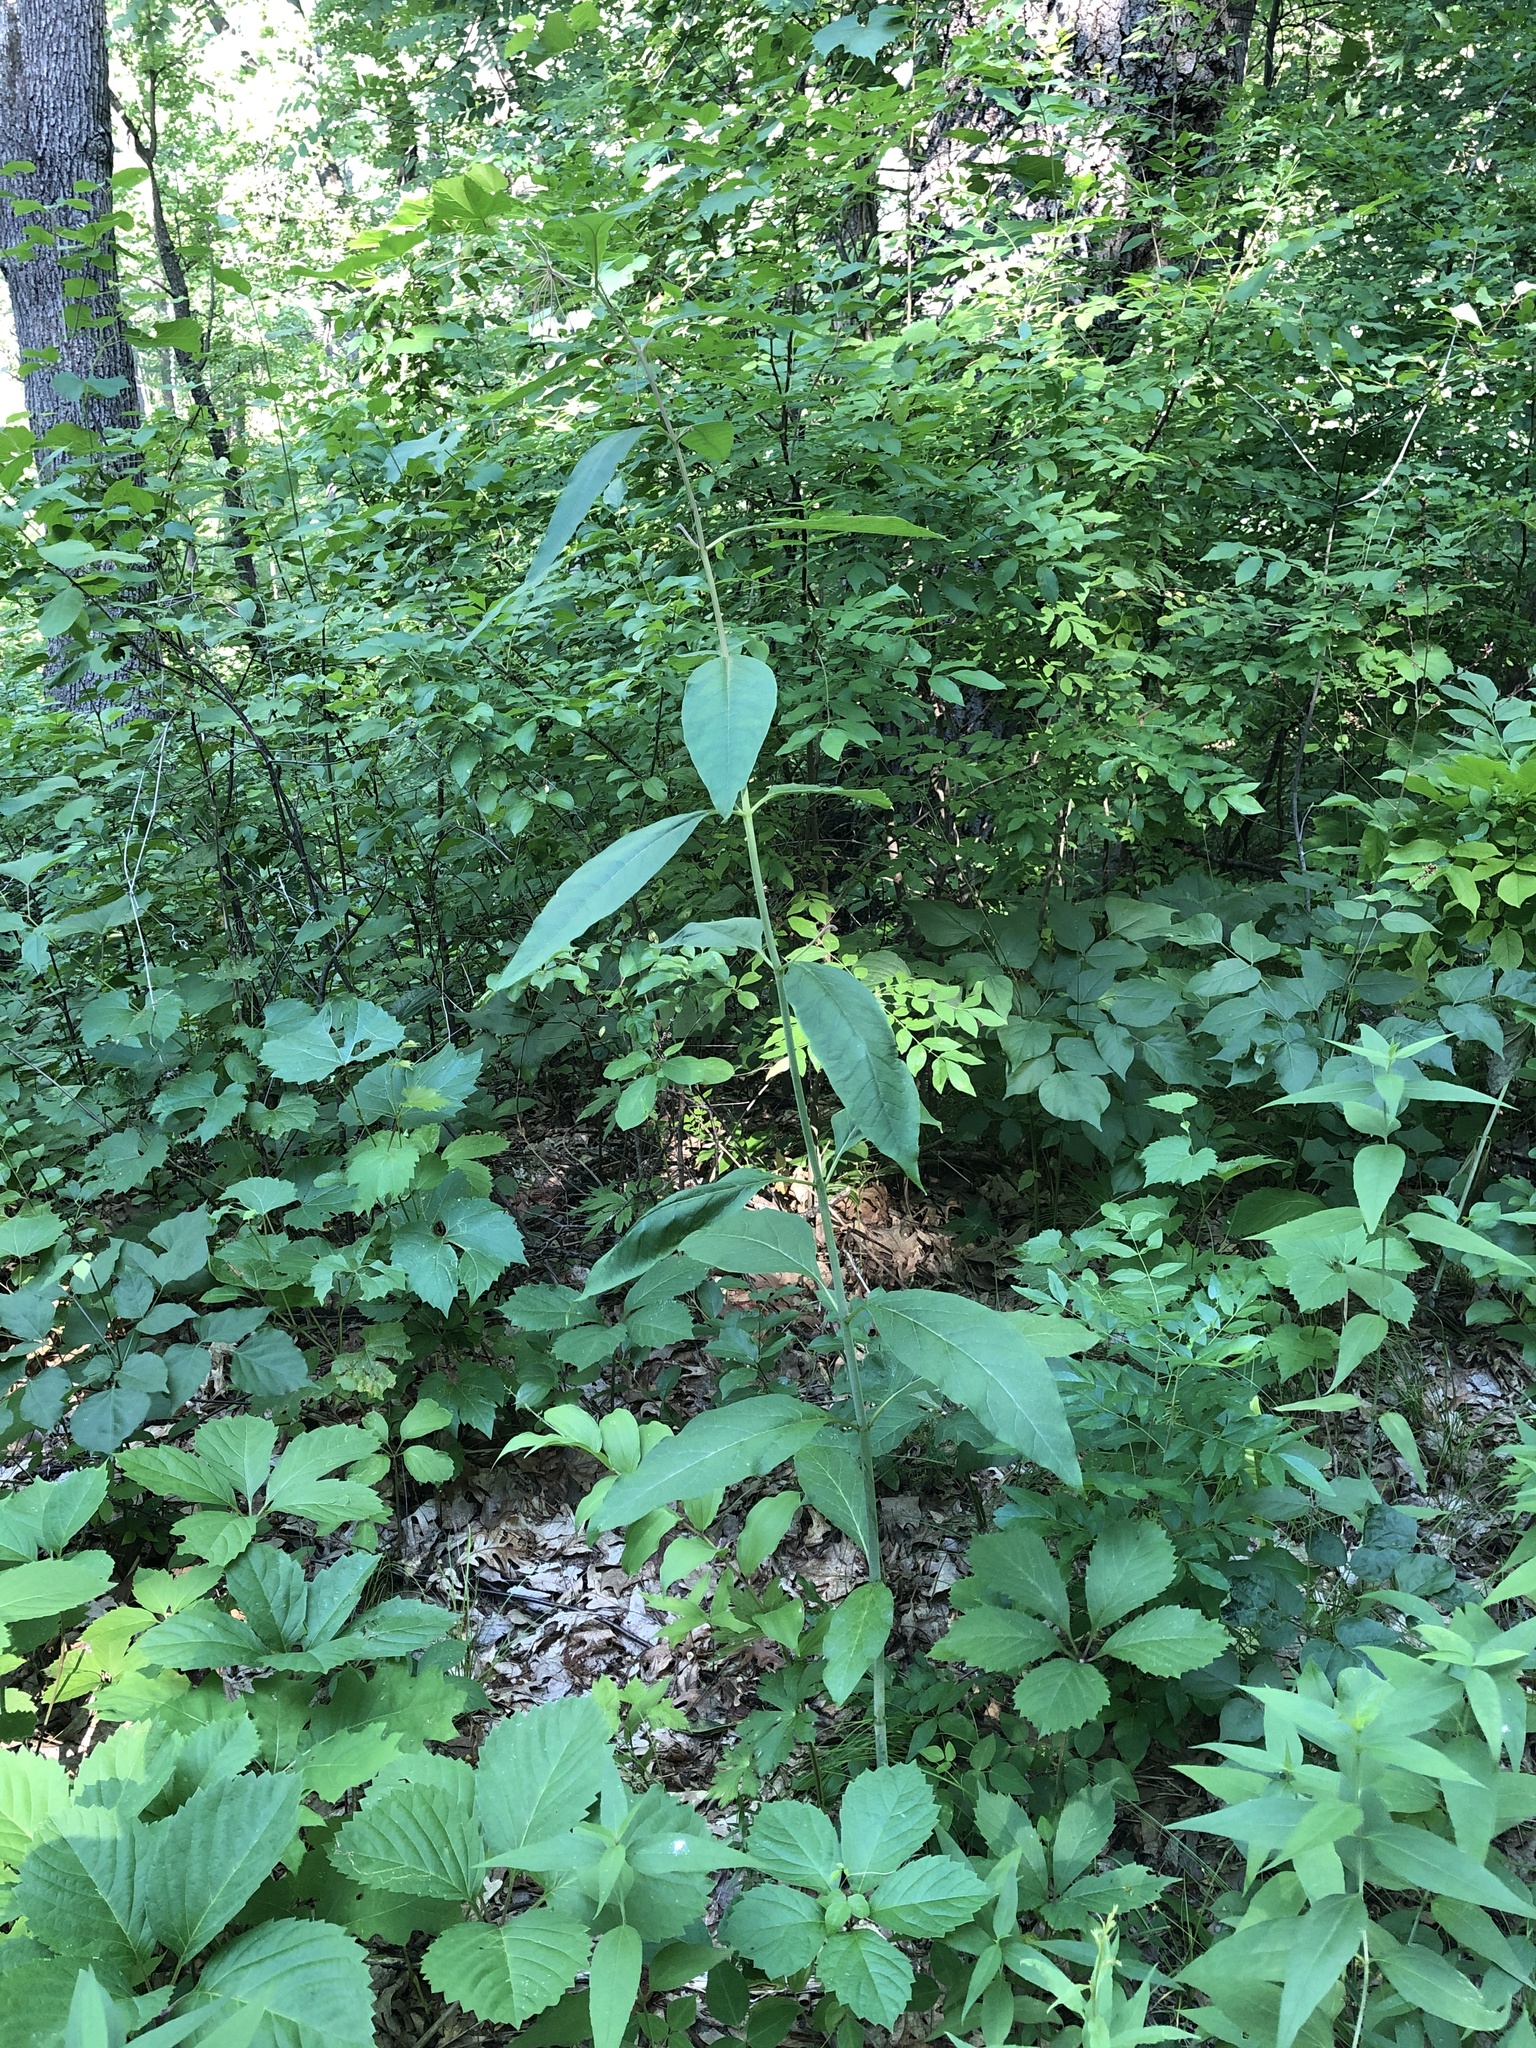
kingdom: Plantae
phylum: Tracheophyta
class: Magnoliopsida
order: Gentianales
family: Apocynaceae
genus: Asclepias
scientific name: Asclepias exaltata
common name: Poke milkweed
